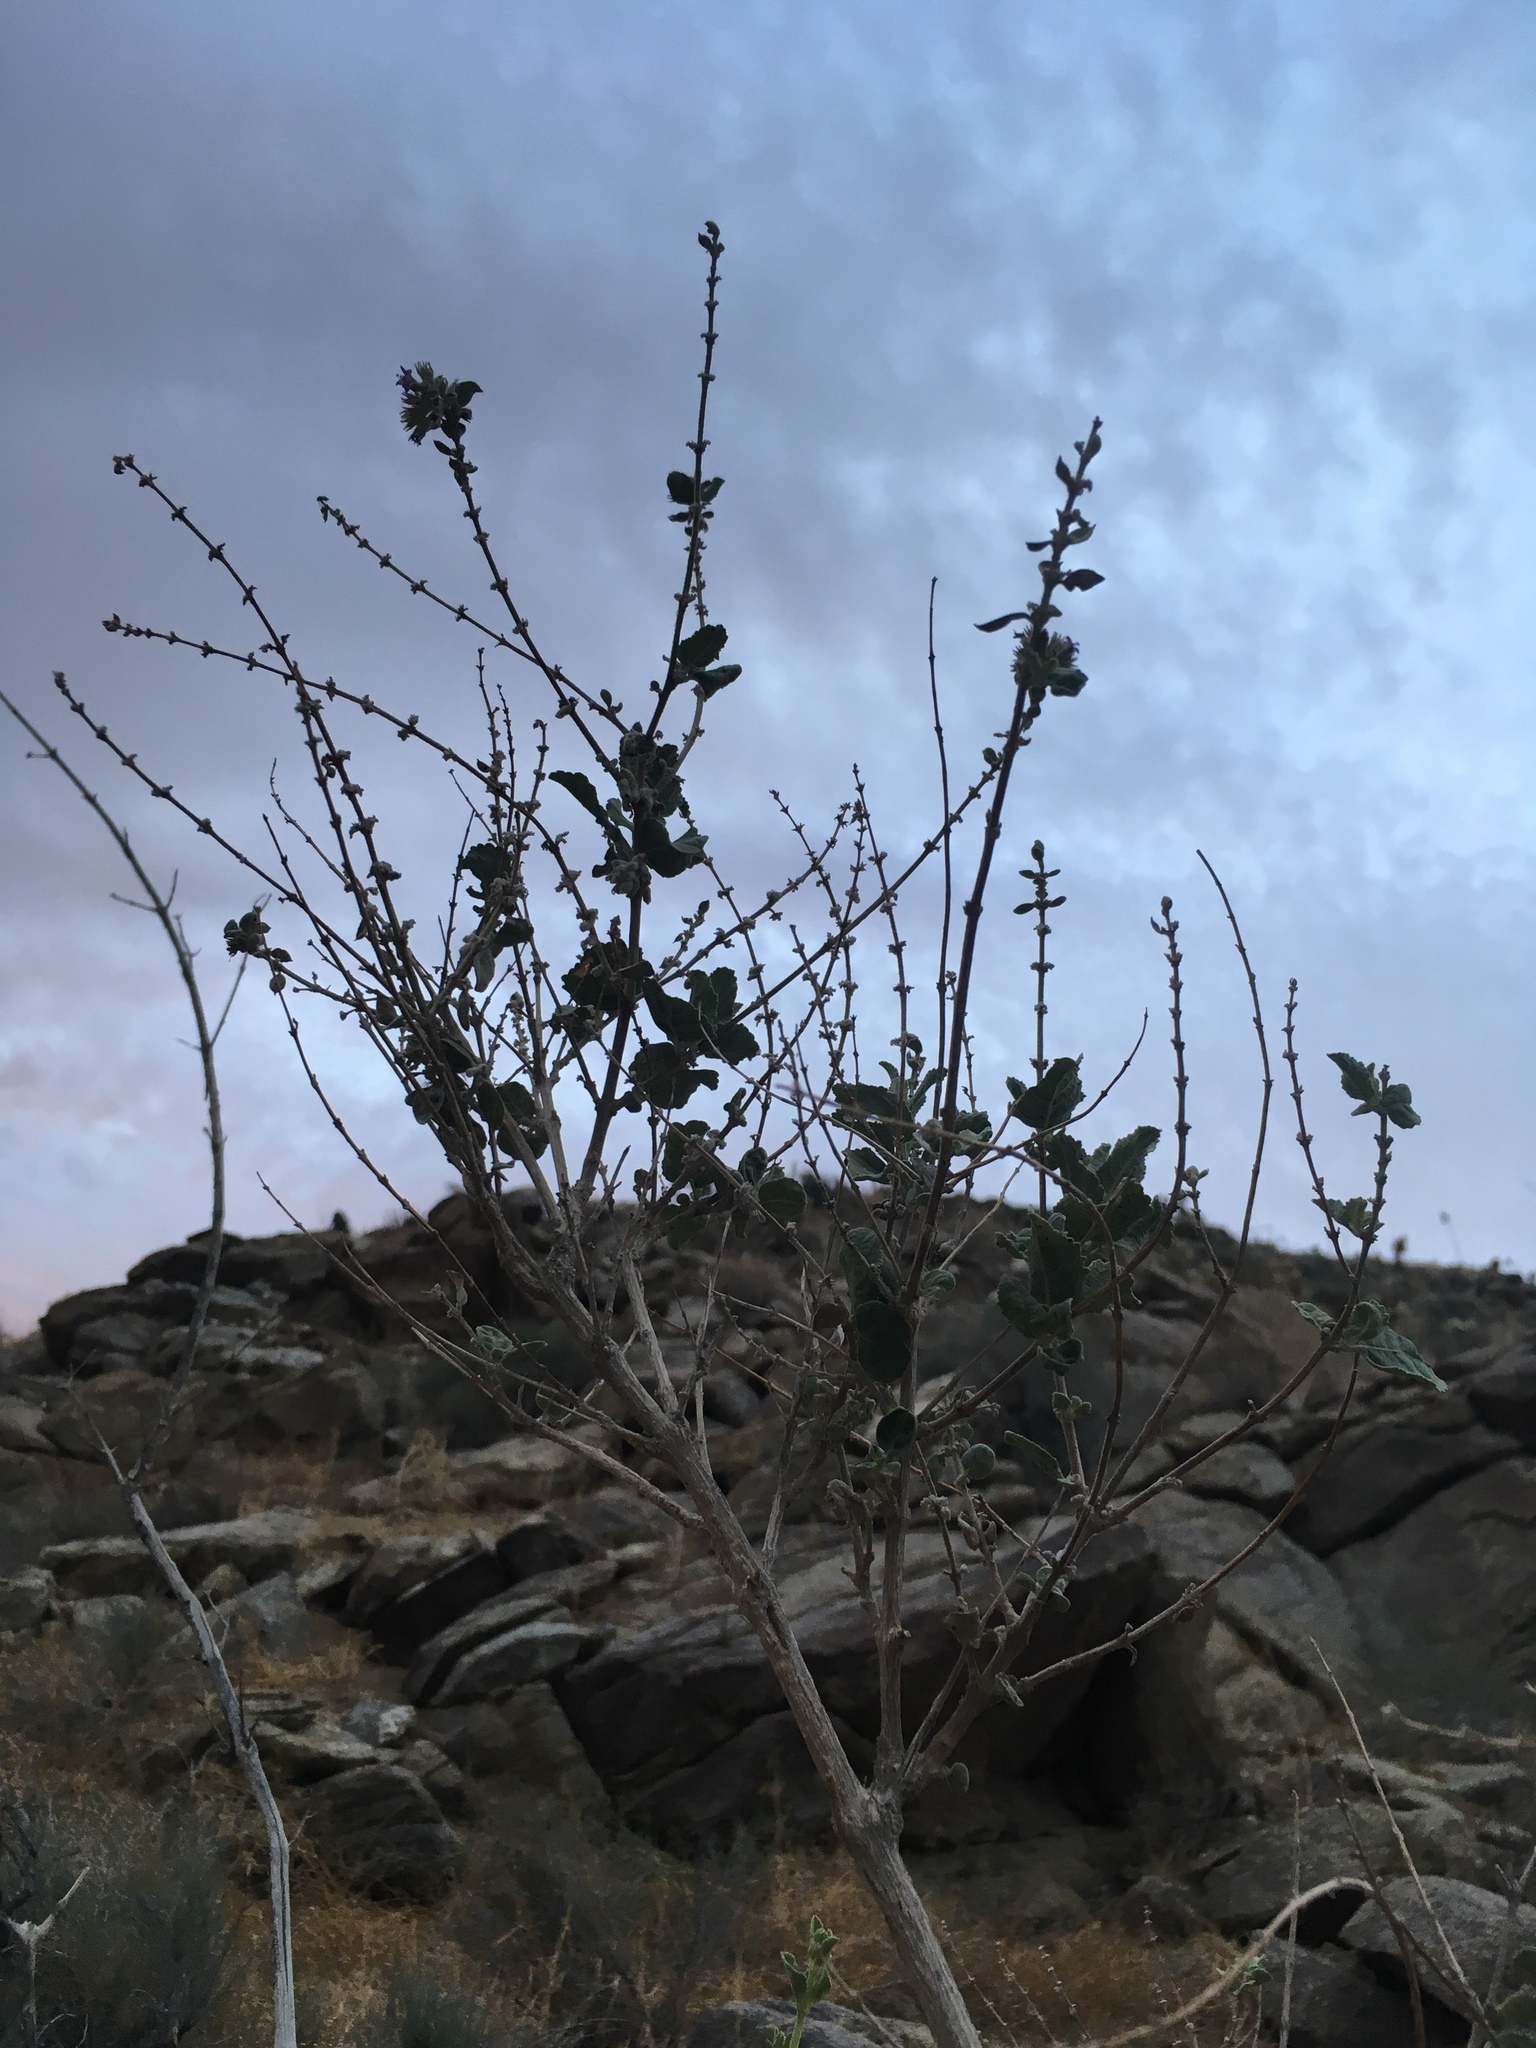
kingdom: Plantae
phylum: Tracheophyta
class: Magnoliopsida
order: Lamiales
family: Lamiaceae
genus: Condea
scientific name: Condea emoryi
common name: Chia
